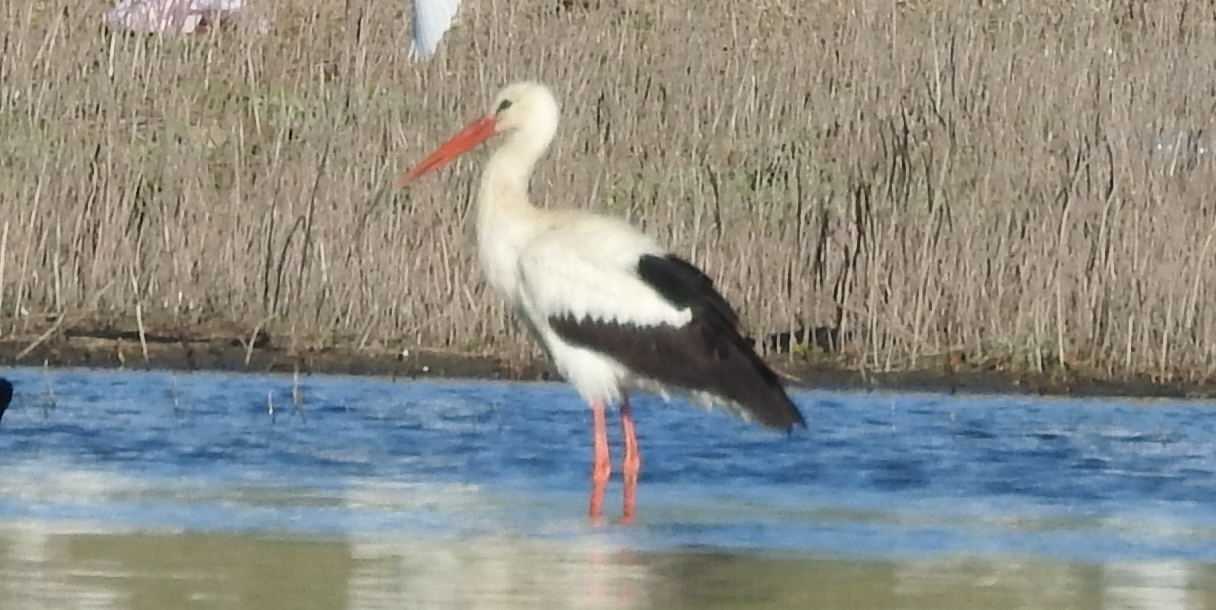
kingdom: Animalia
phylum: Chordata
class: Aves
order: Ciconiiformes
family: Ciconiidae
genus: Ciconia
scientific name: Ciconia ciconia
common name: White stork
